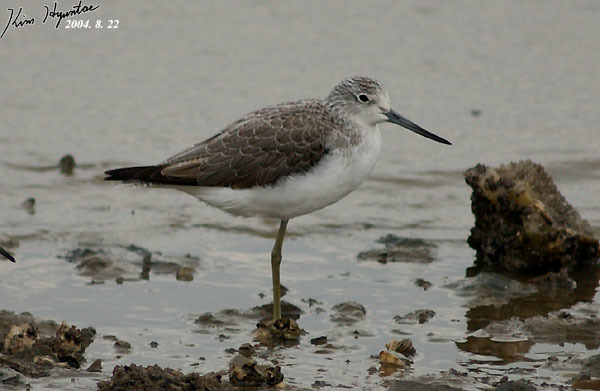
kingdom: Animalia
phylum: Chordata
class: Aves
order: Charadriiformes
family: Scolopacidae
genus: Tringa
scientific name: Tringa nebularia
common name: Common greenshank
